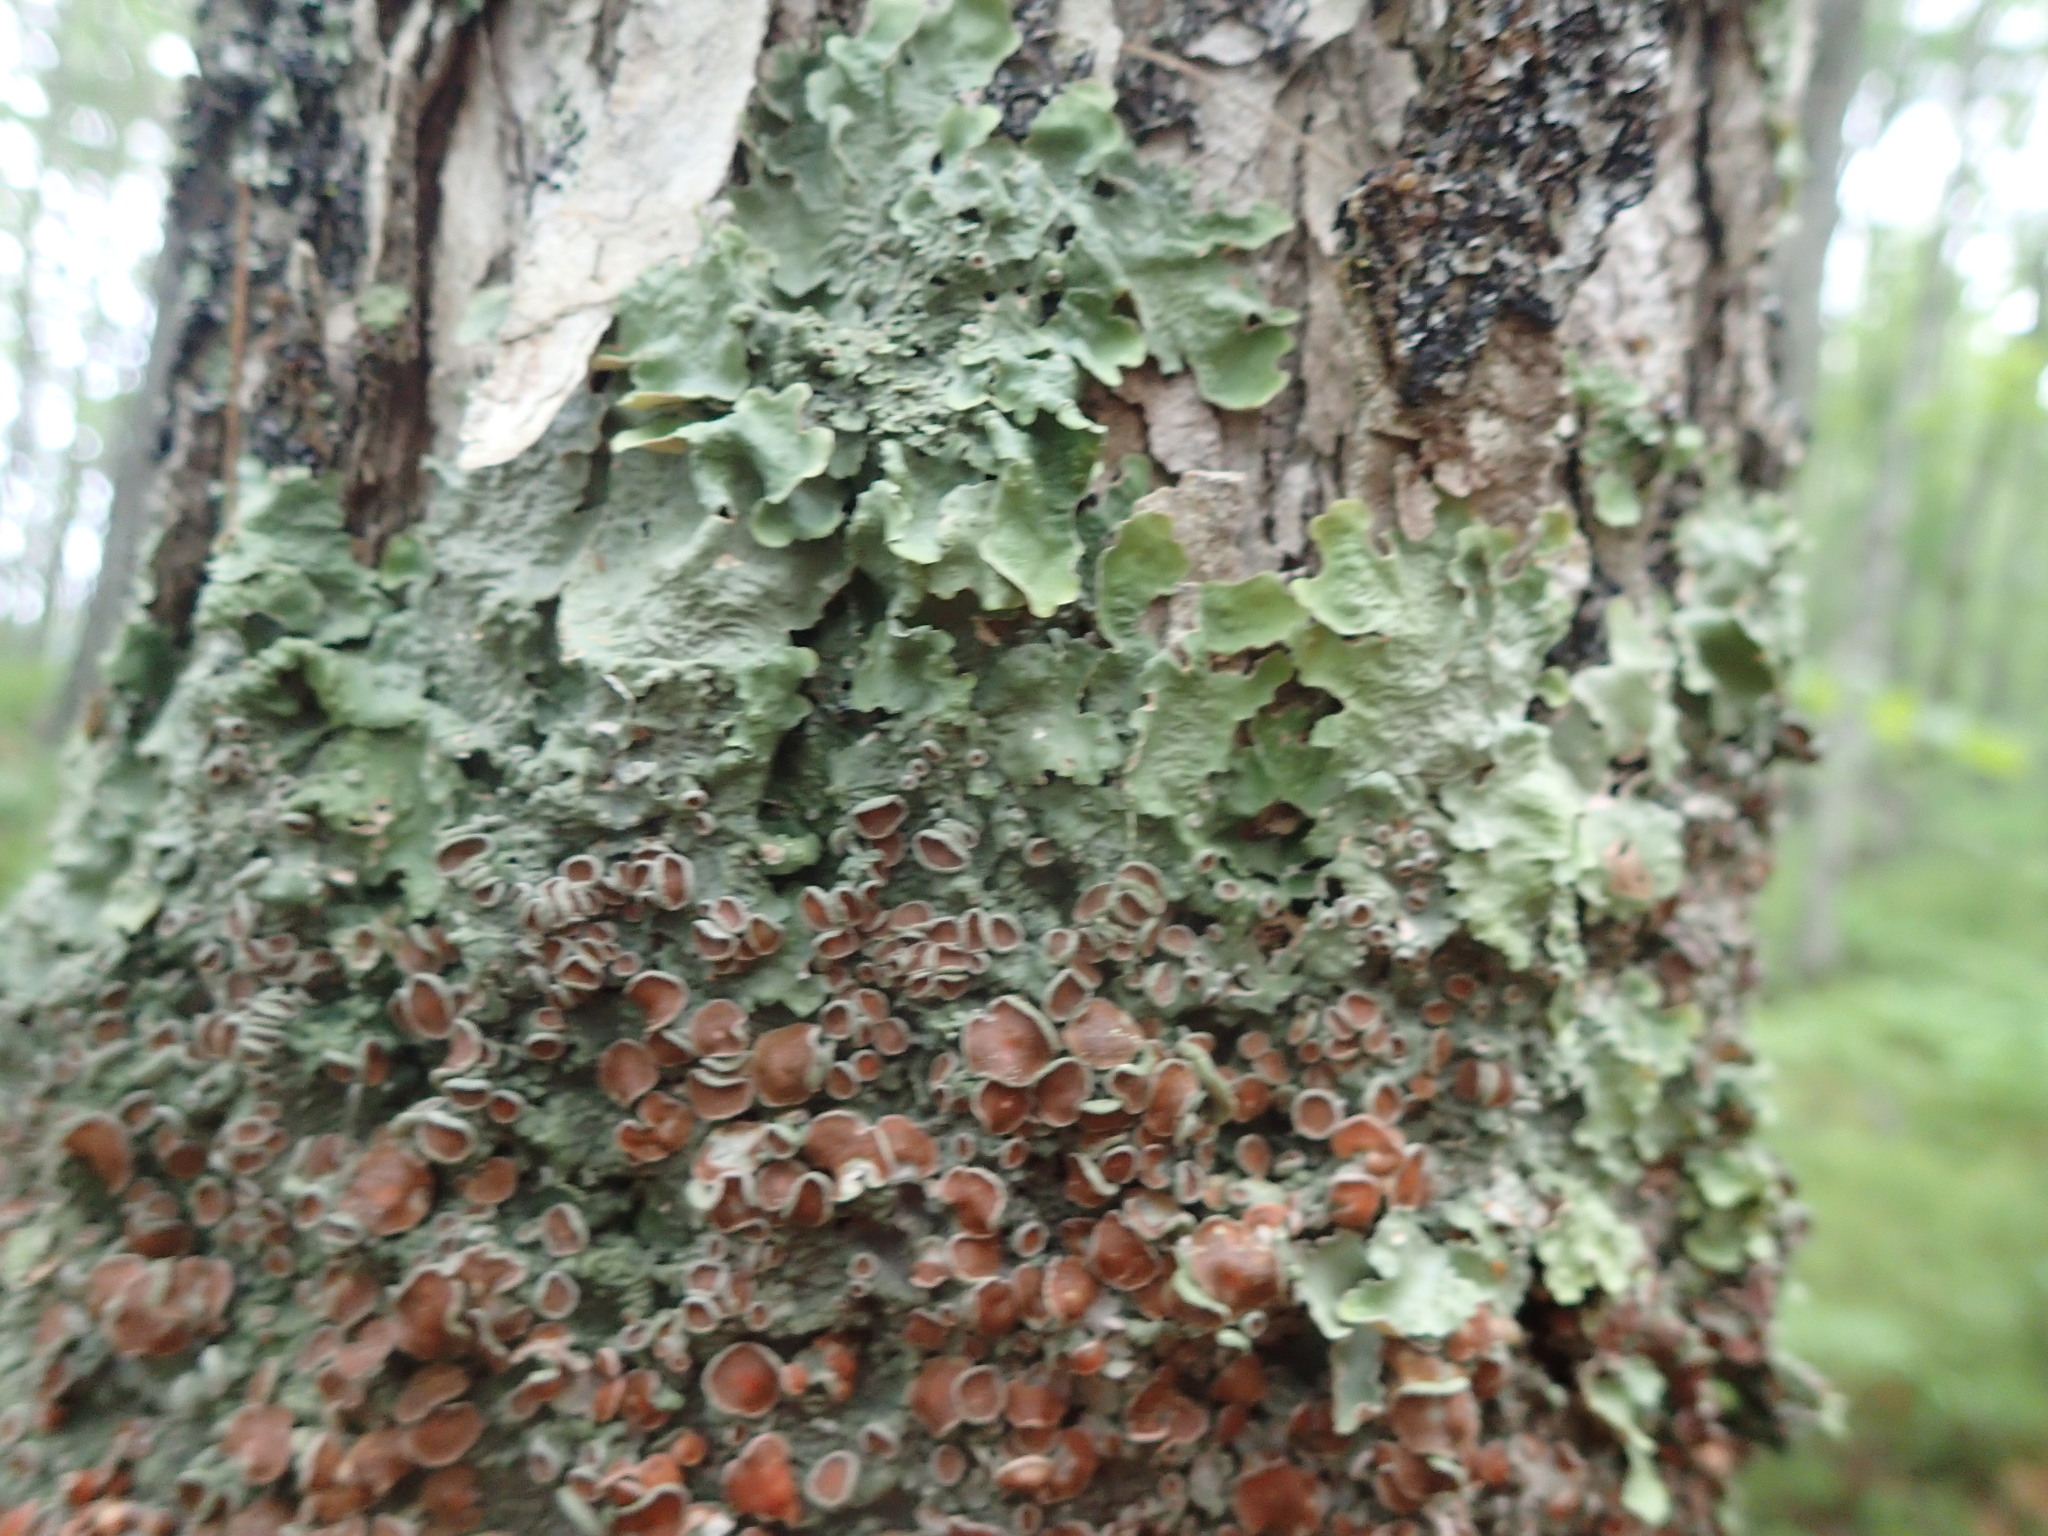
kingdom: Fungi
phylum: Ascomycota
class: Lecanoromycetes
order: Peltigerales
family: Lobariaceae
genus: Ricasolia
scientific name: Ricasolia quercizans
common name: Smooth lungwort
